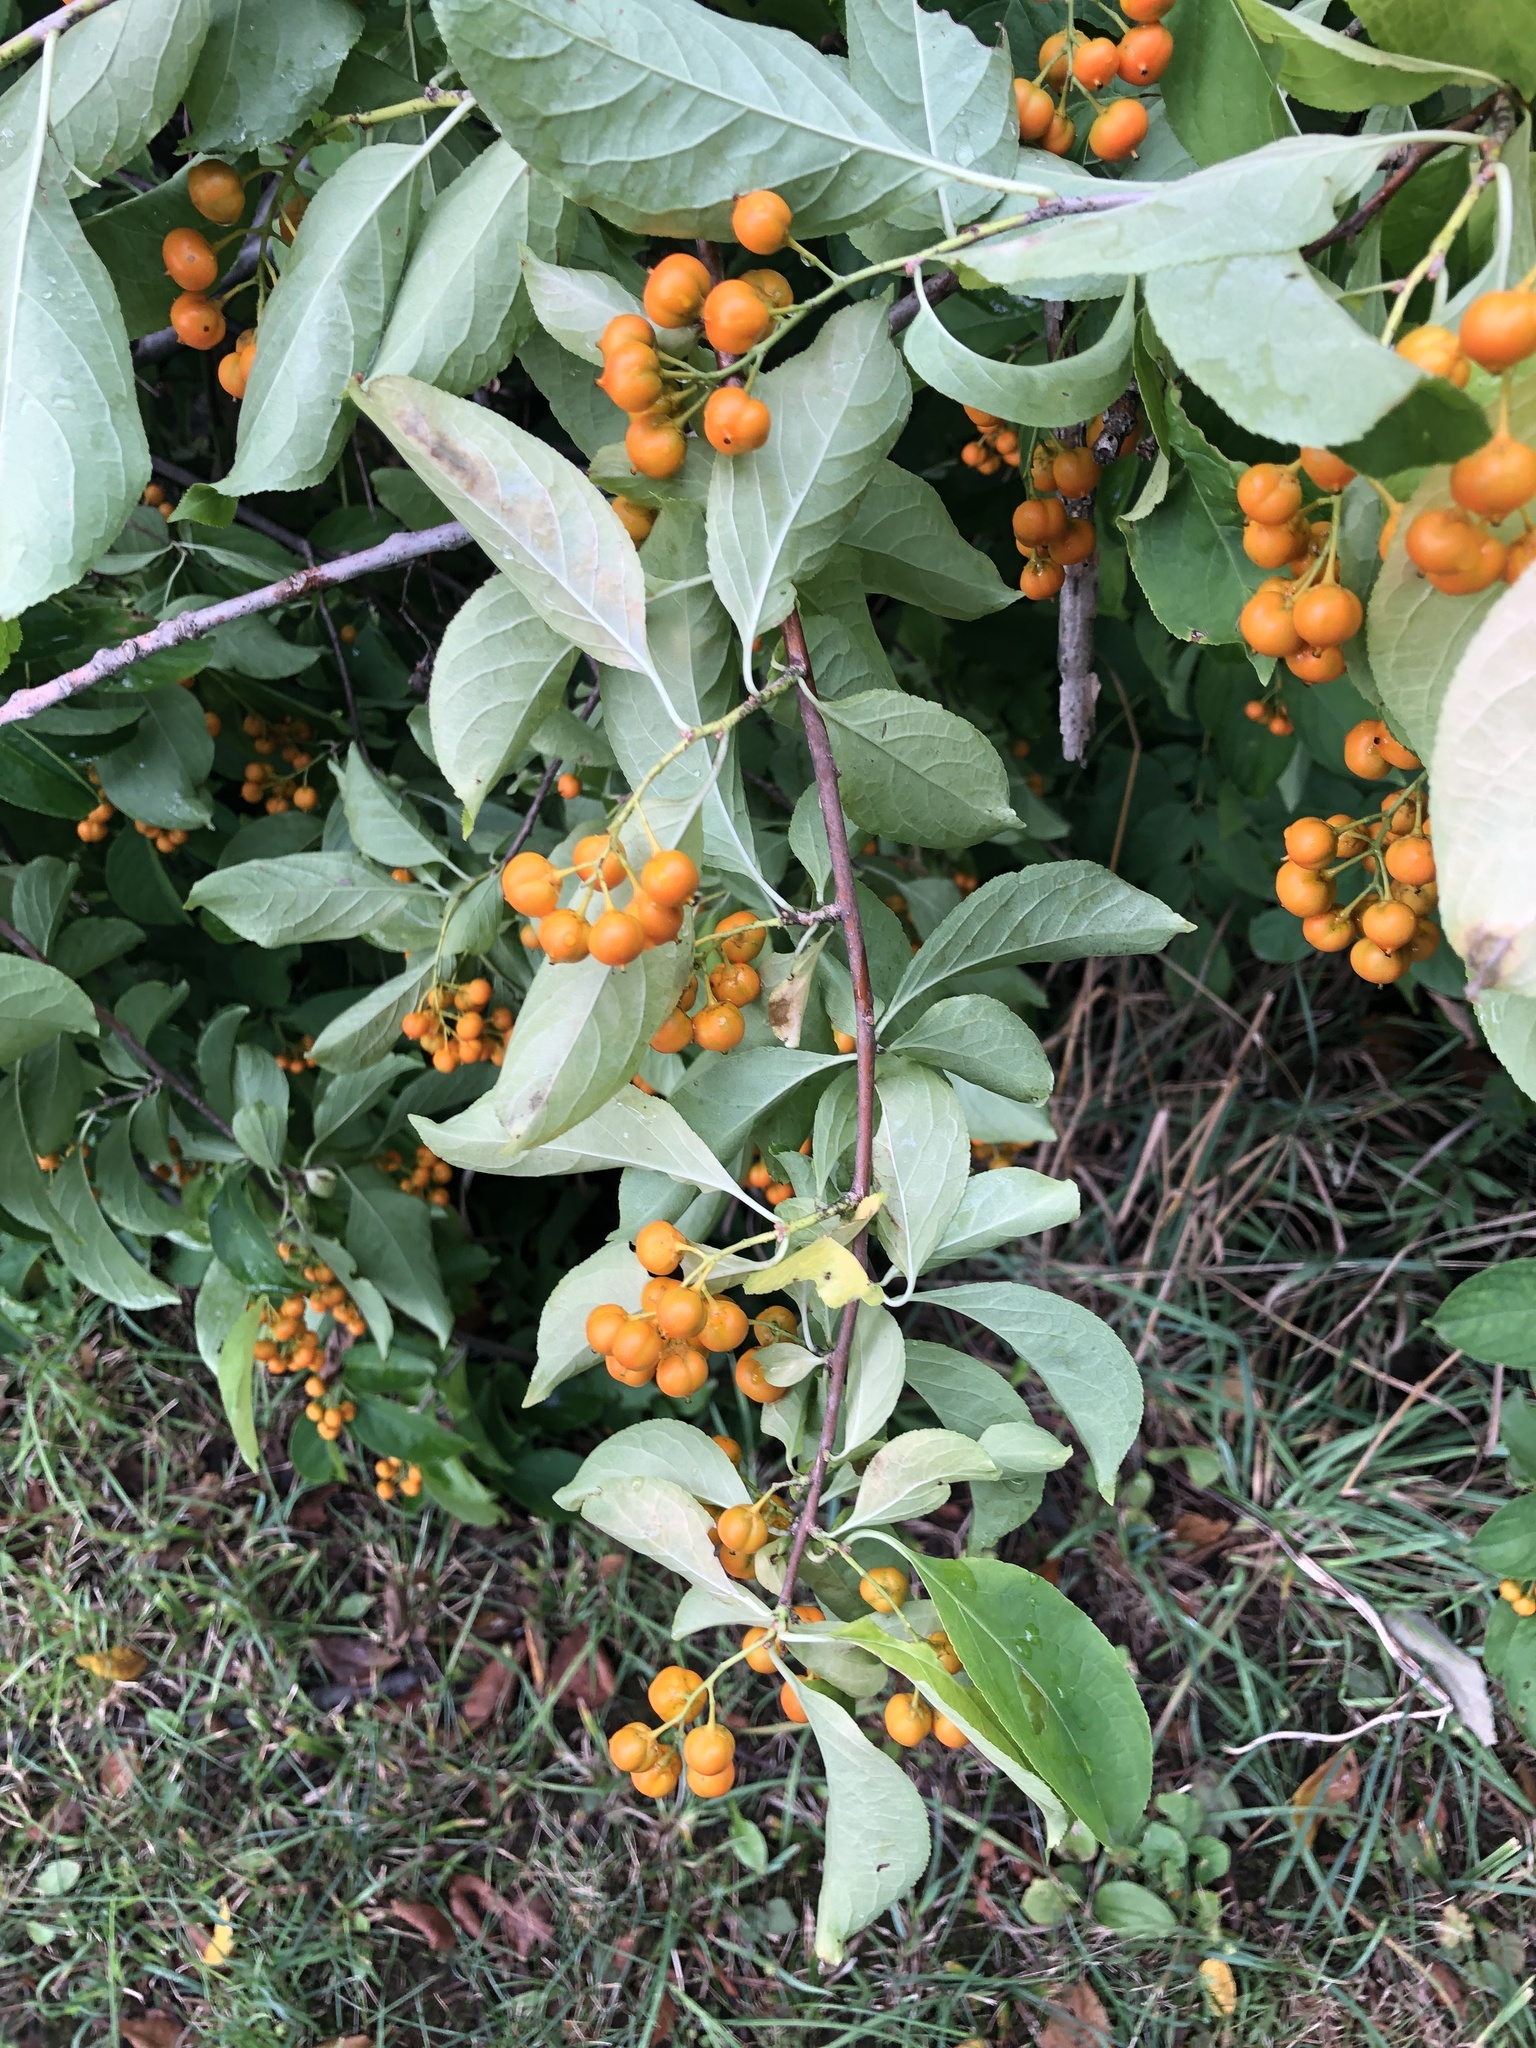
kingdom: Plantae
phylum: Tracheophyta
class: Magnoliopsida
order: Celastrales
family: Celastraceae
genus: Celastrus
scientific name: Celastrus scandens
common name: American bittersweet
